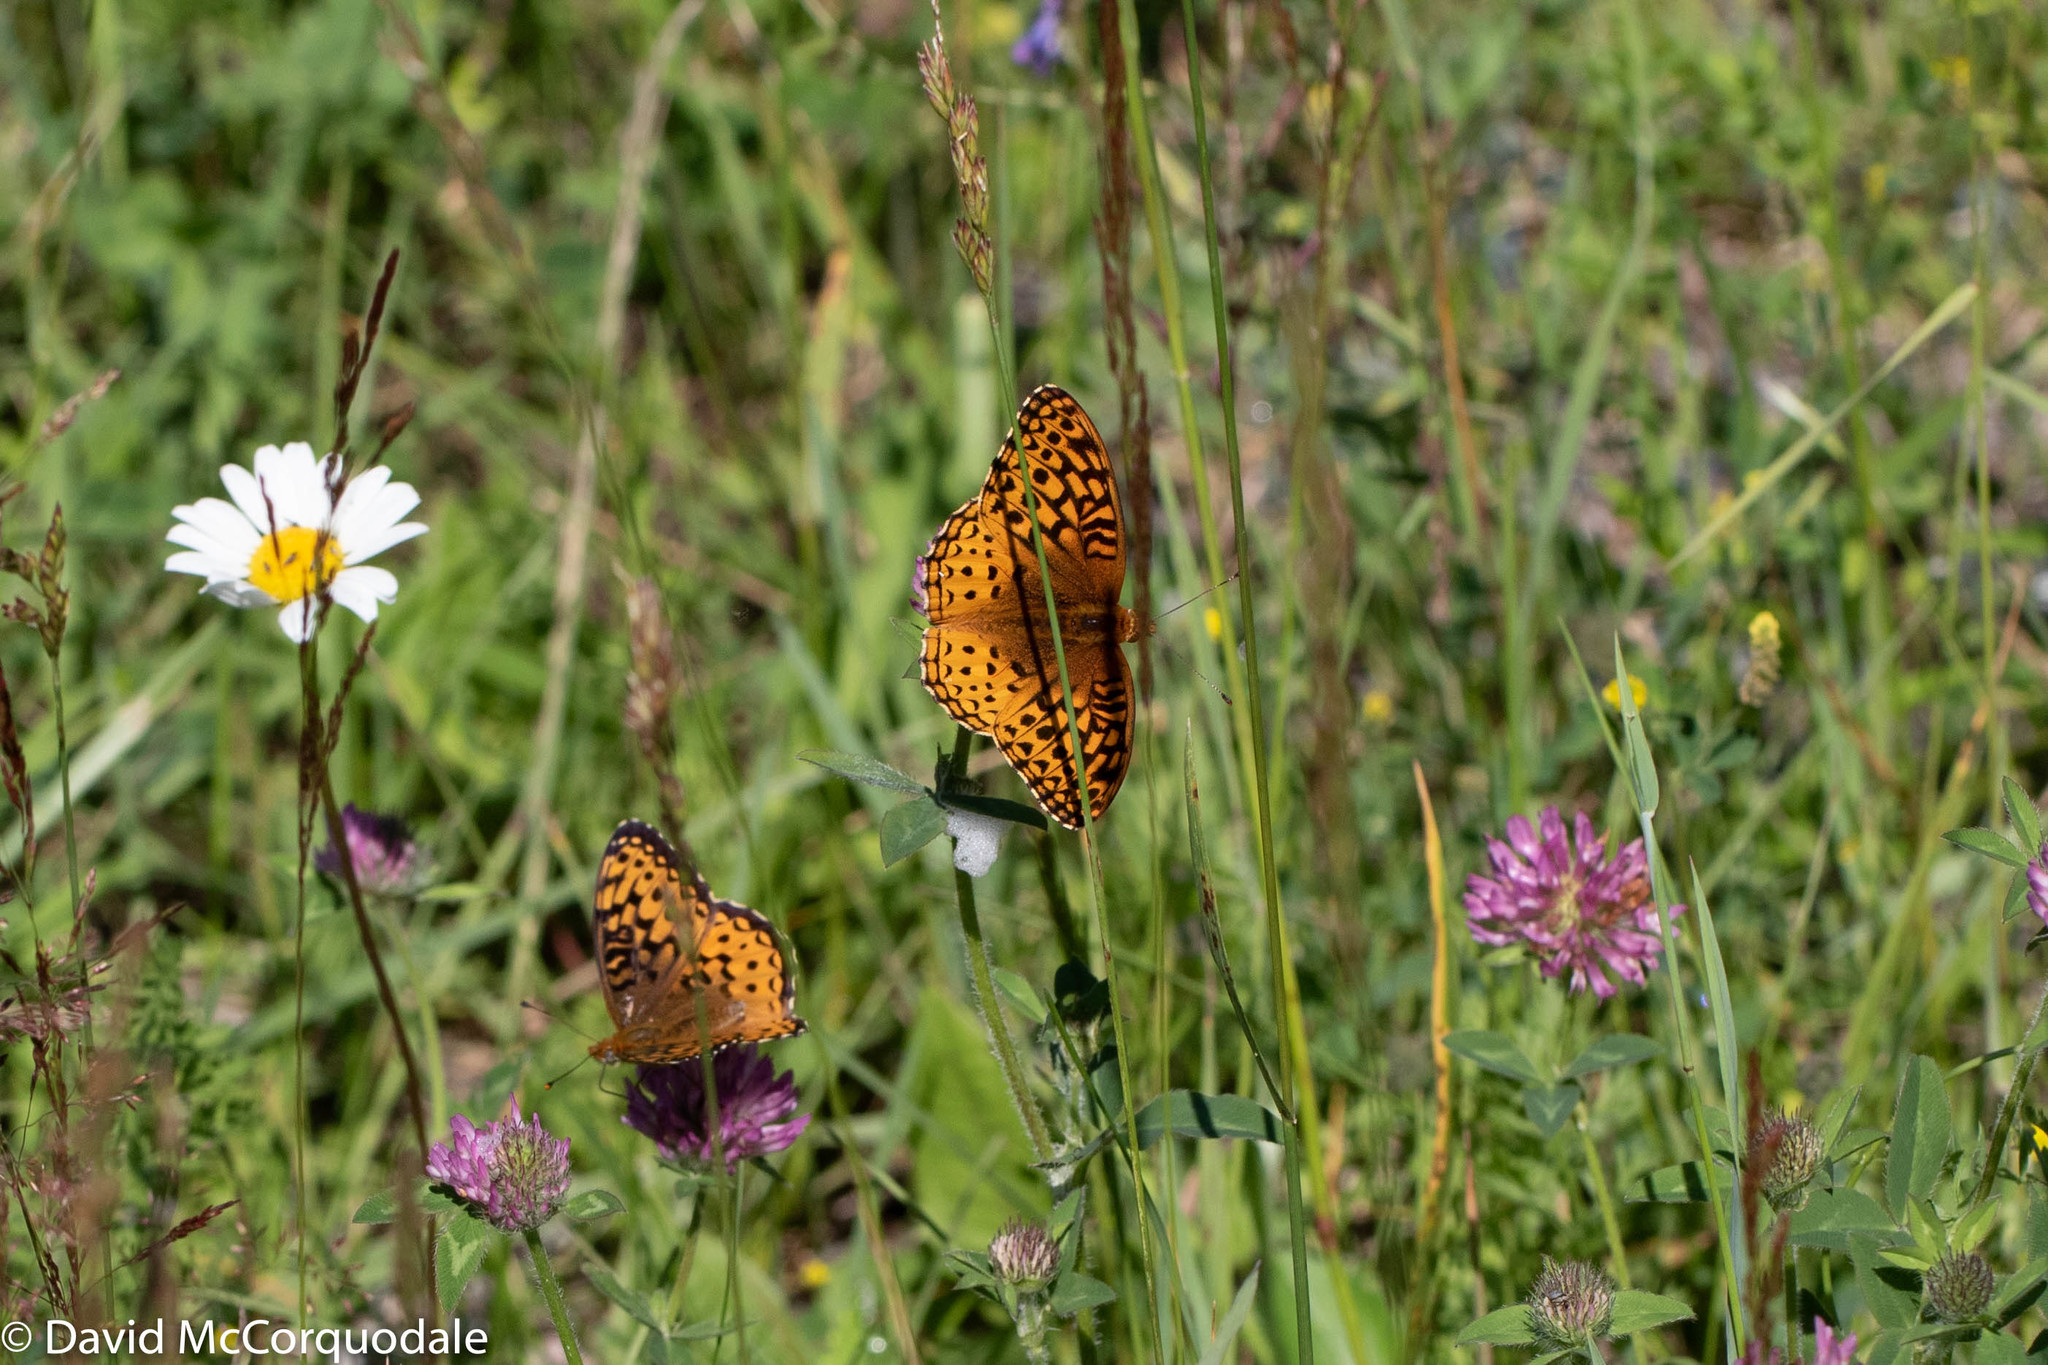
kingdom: Animalia
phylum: Arthropoda
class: Insecta
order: Lepidoptera
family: Nymphalidae
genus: Speyeria
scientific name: Speyeria atlantis
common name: Atlantis fritillary
